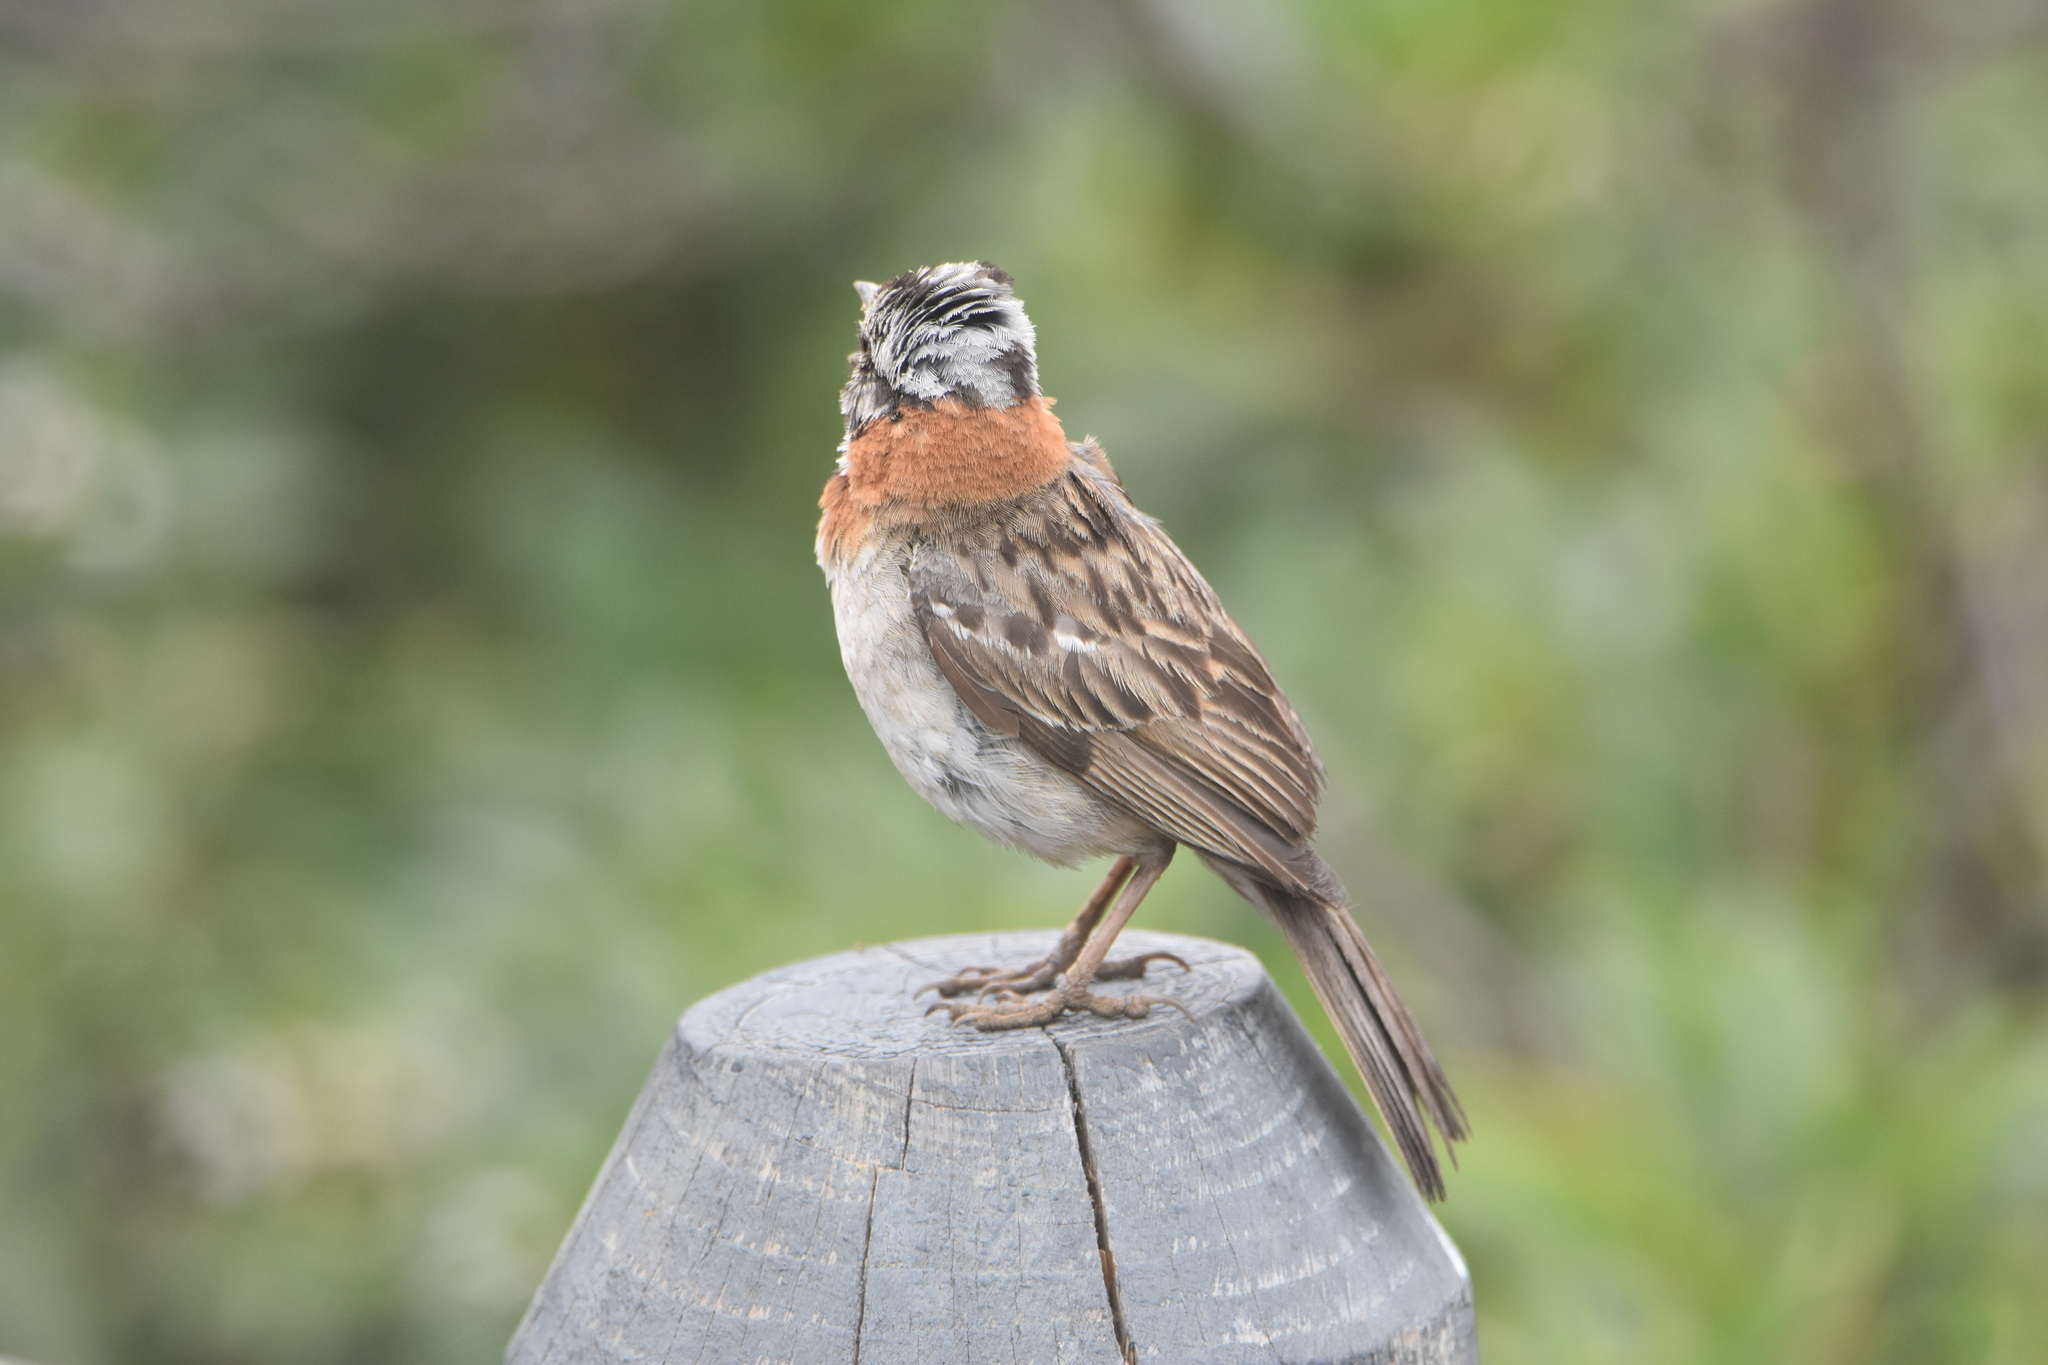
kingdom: Animalia
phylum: Chordata
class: Aves
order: Passeriformes
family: Passerellidae
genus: Zonotrichia
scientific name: Zonotrichia capensis
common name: Rufous-collared sparrow
